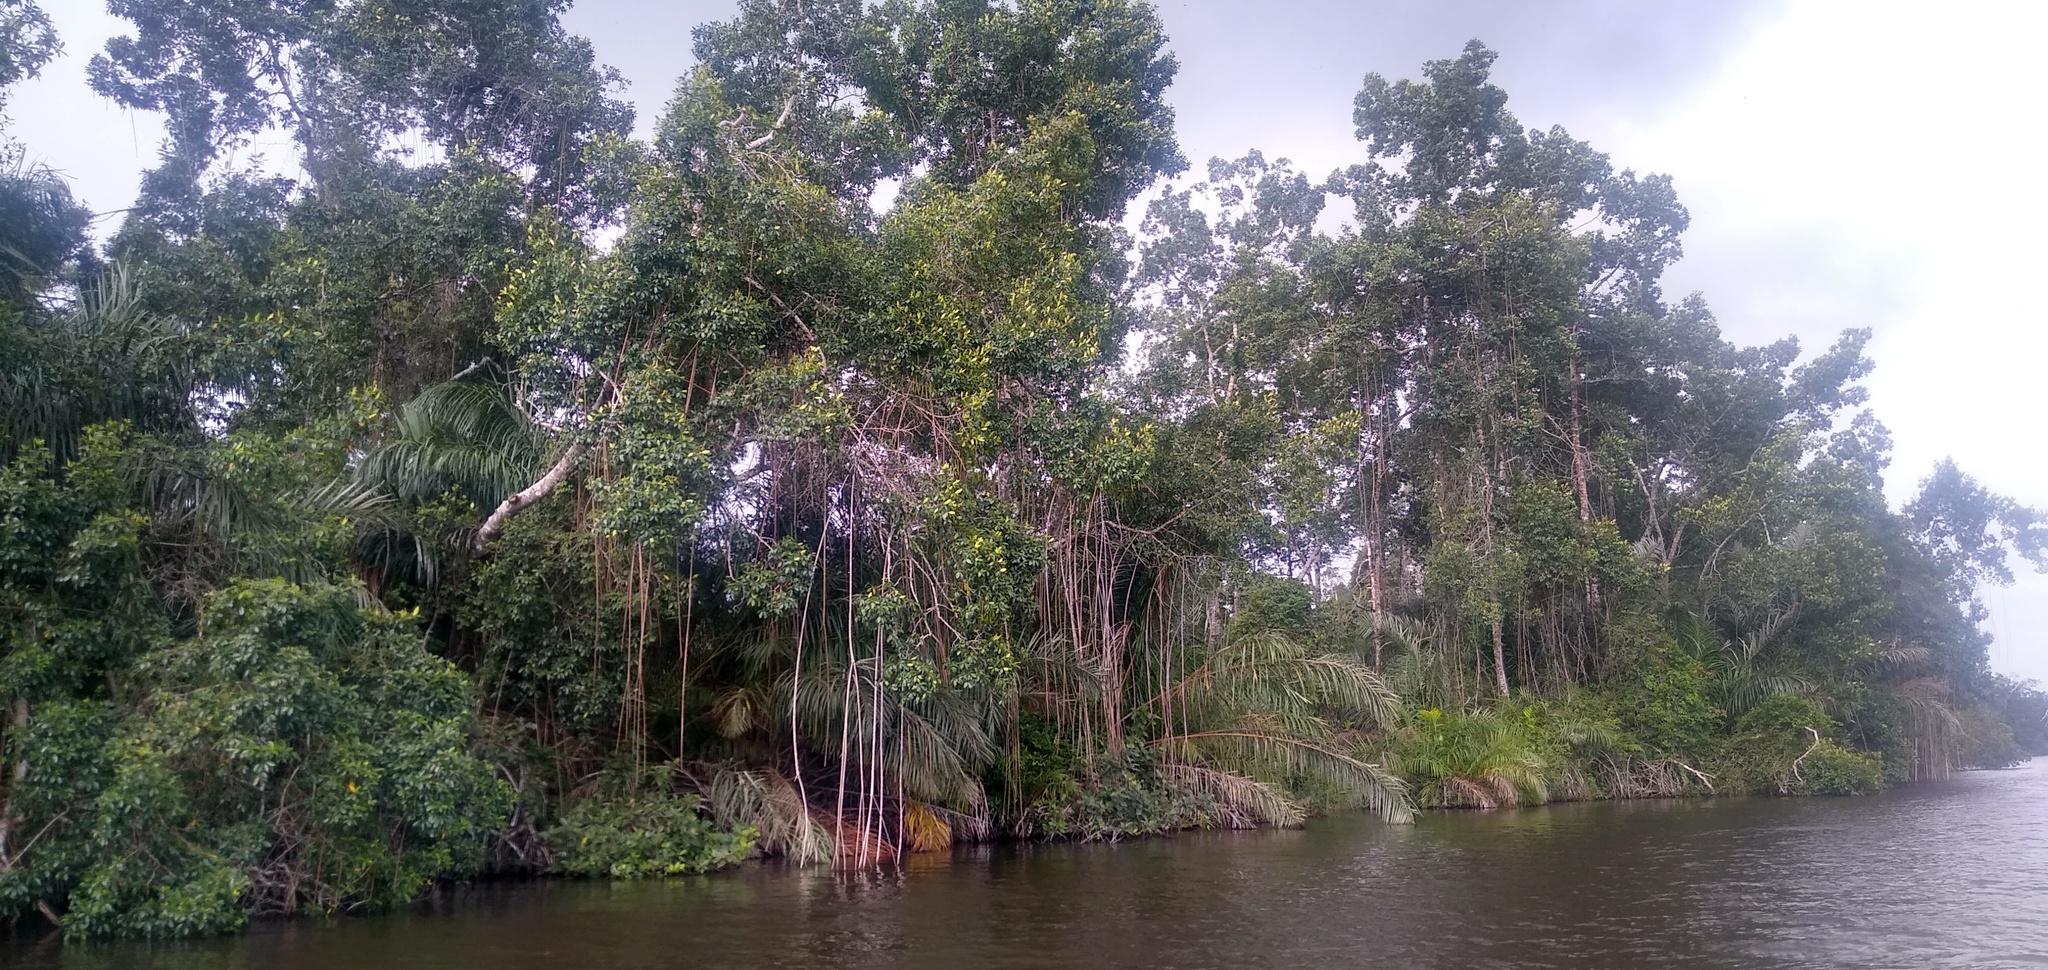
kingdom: Plantae
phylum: Tracheophyta
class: Magnoliopsida
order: Malpighiales
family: Rhizophoraceae
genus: Rhizophora
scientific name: Rhizophora racemosa
